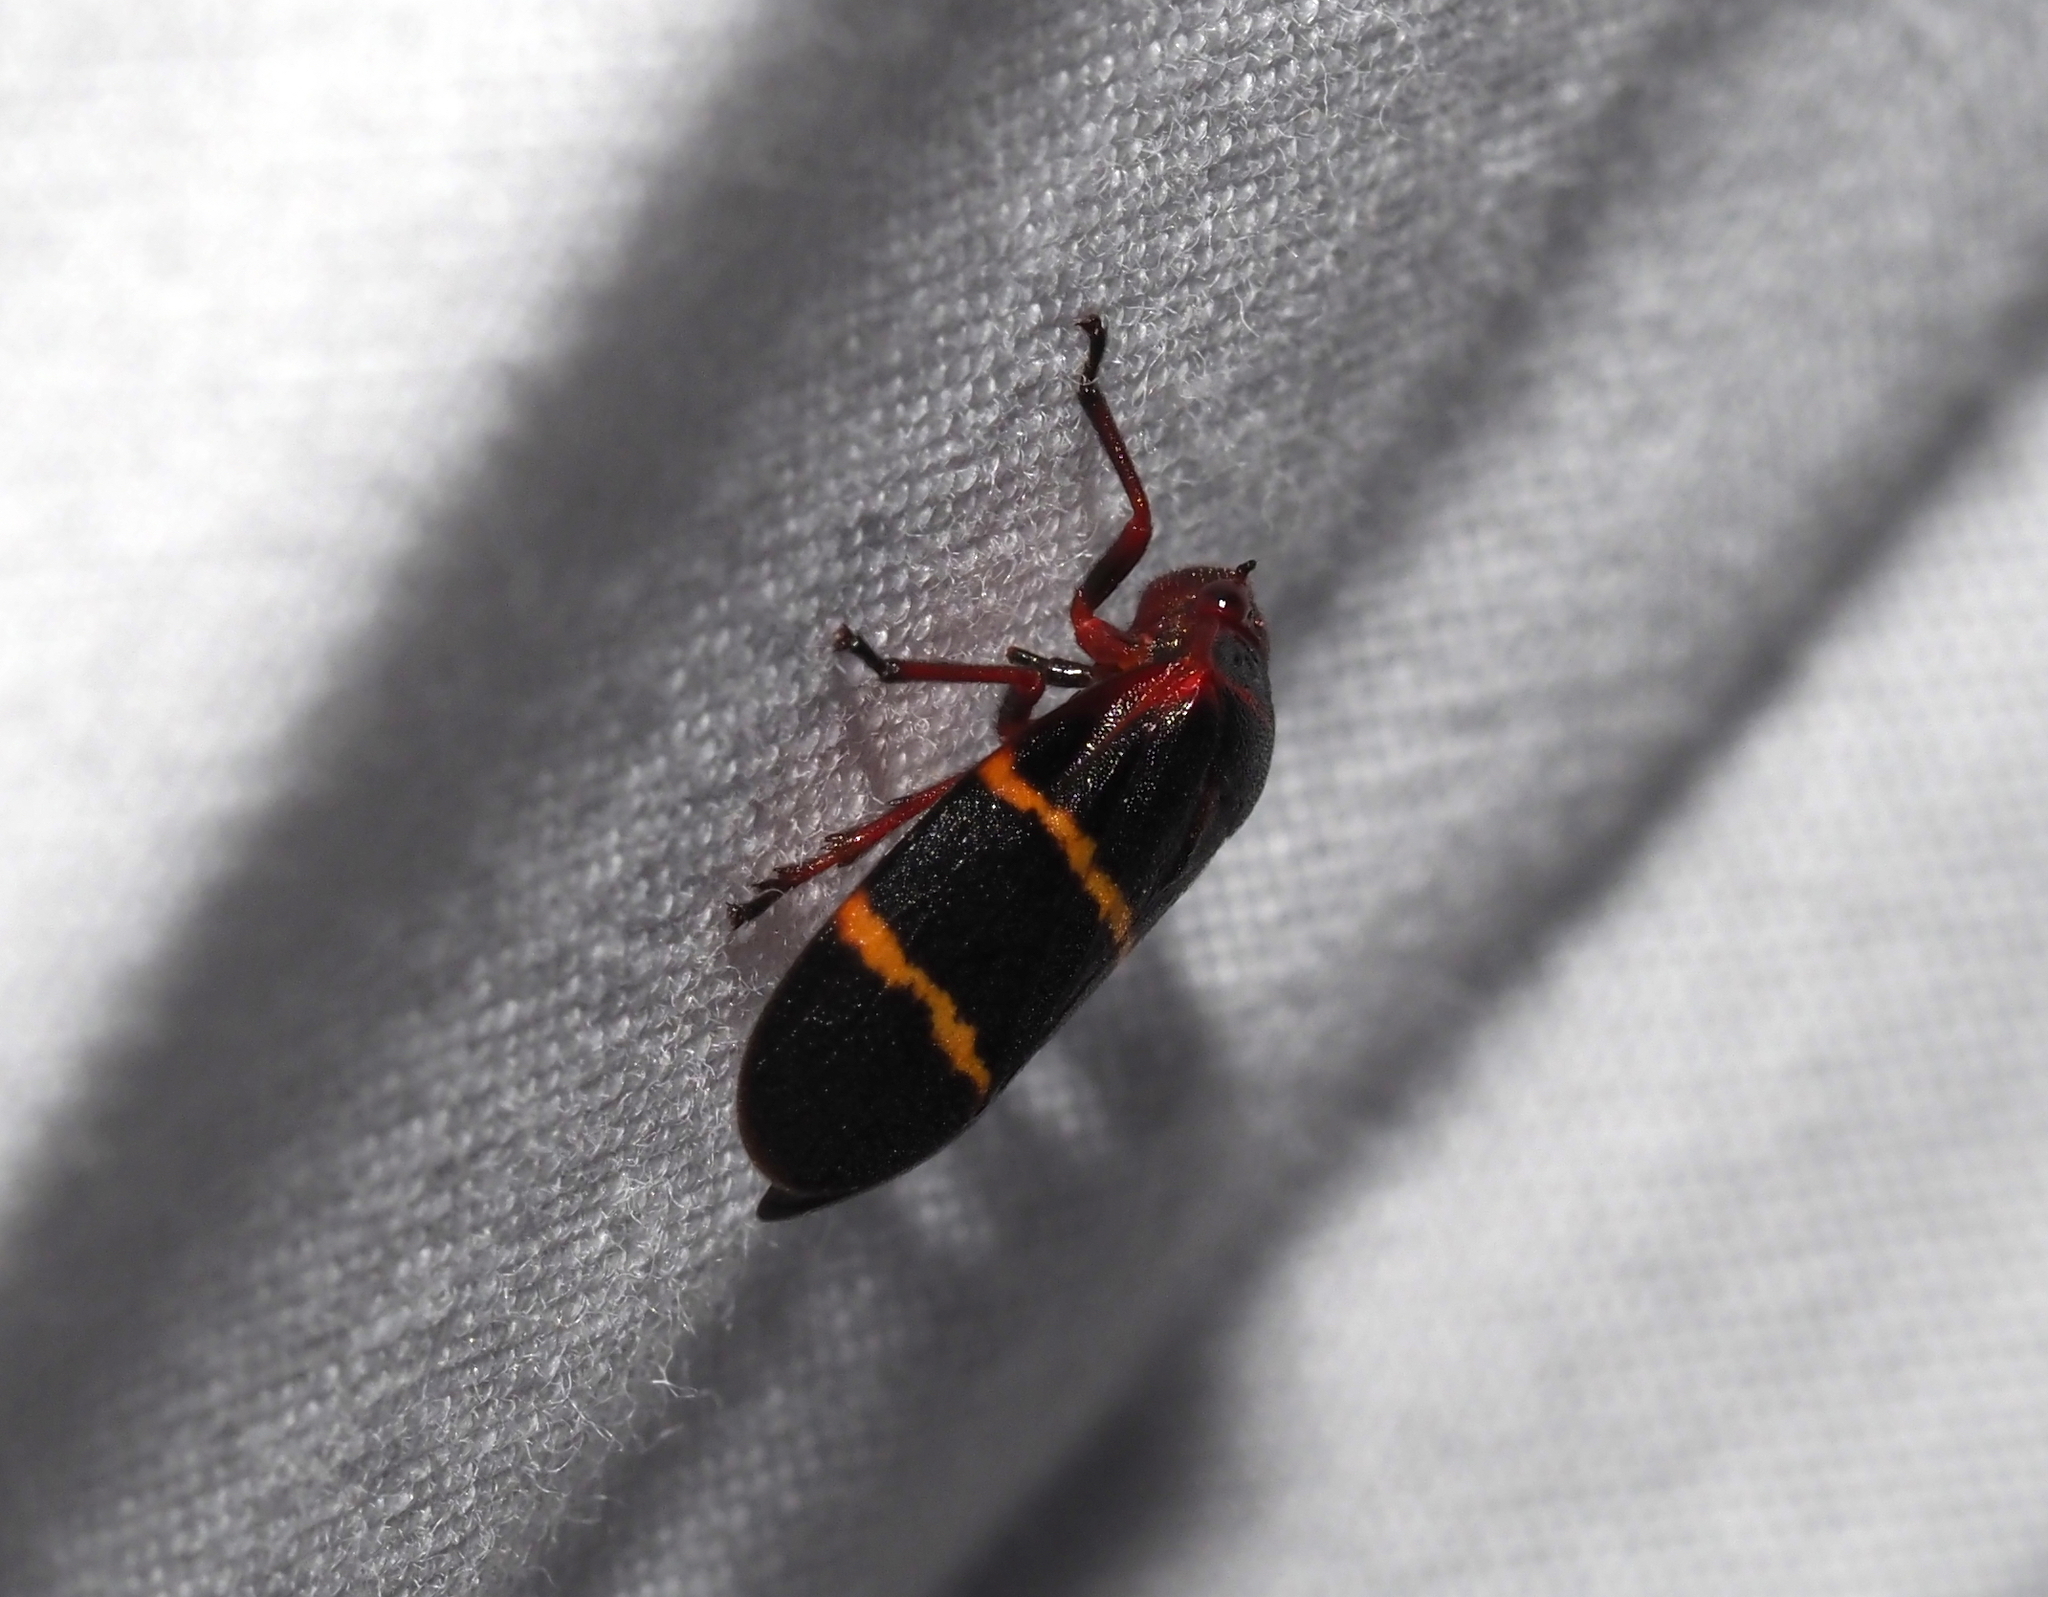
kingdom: Animalia
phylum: Arthropoda
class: Insecta
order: Hemiptera
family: Cercopidae
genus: Prosapia
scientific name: Prosapia bicincta
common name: Twolined spittlebug
